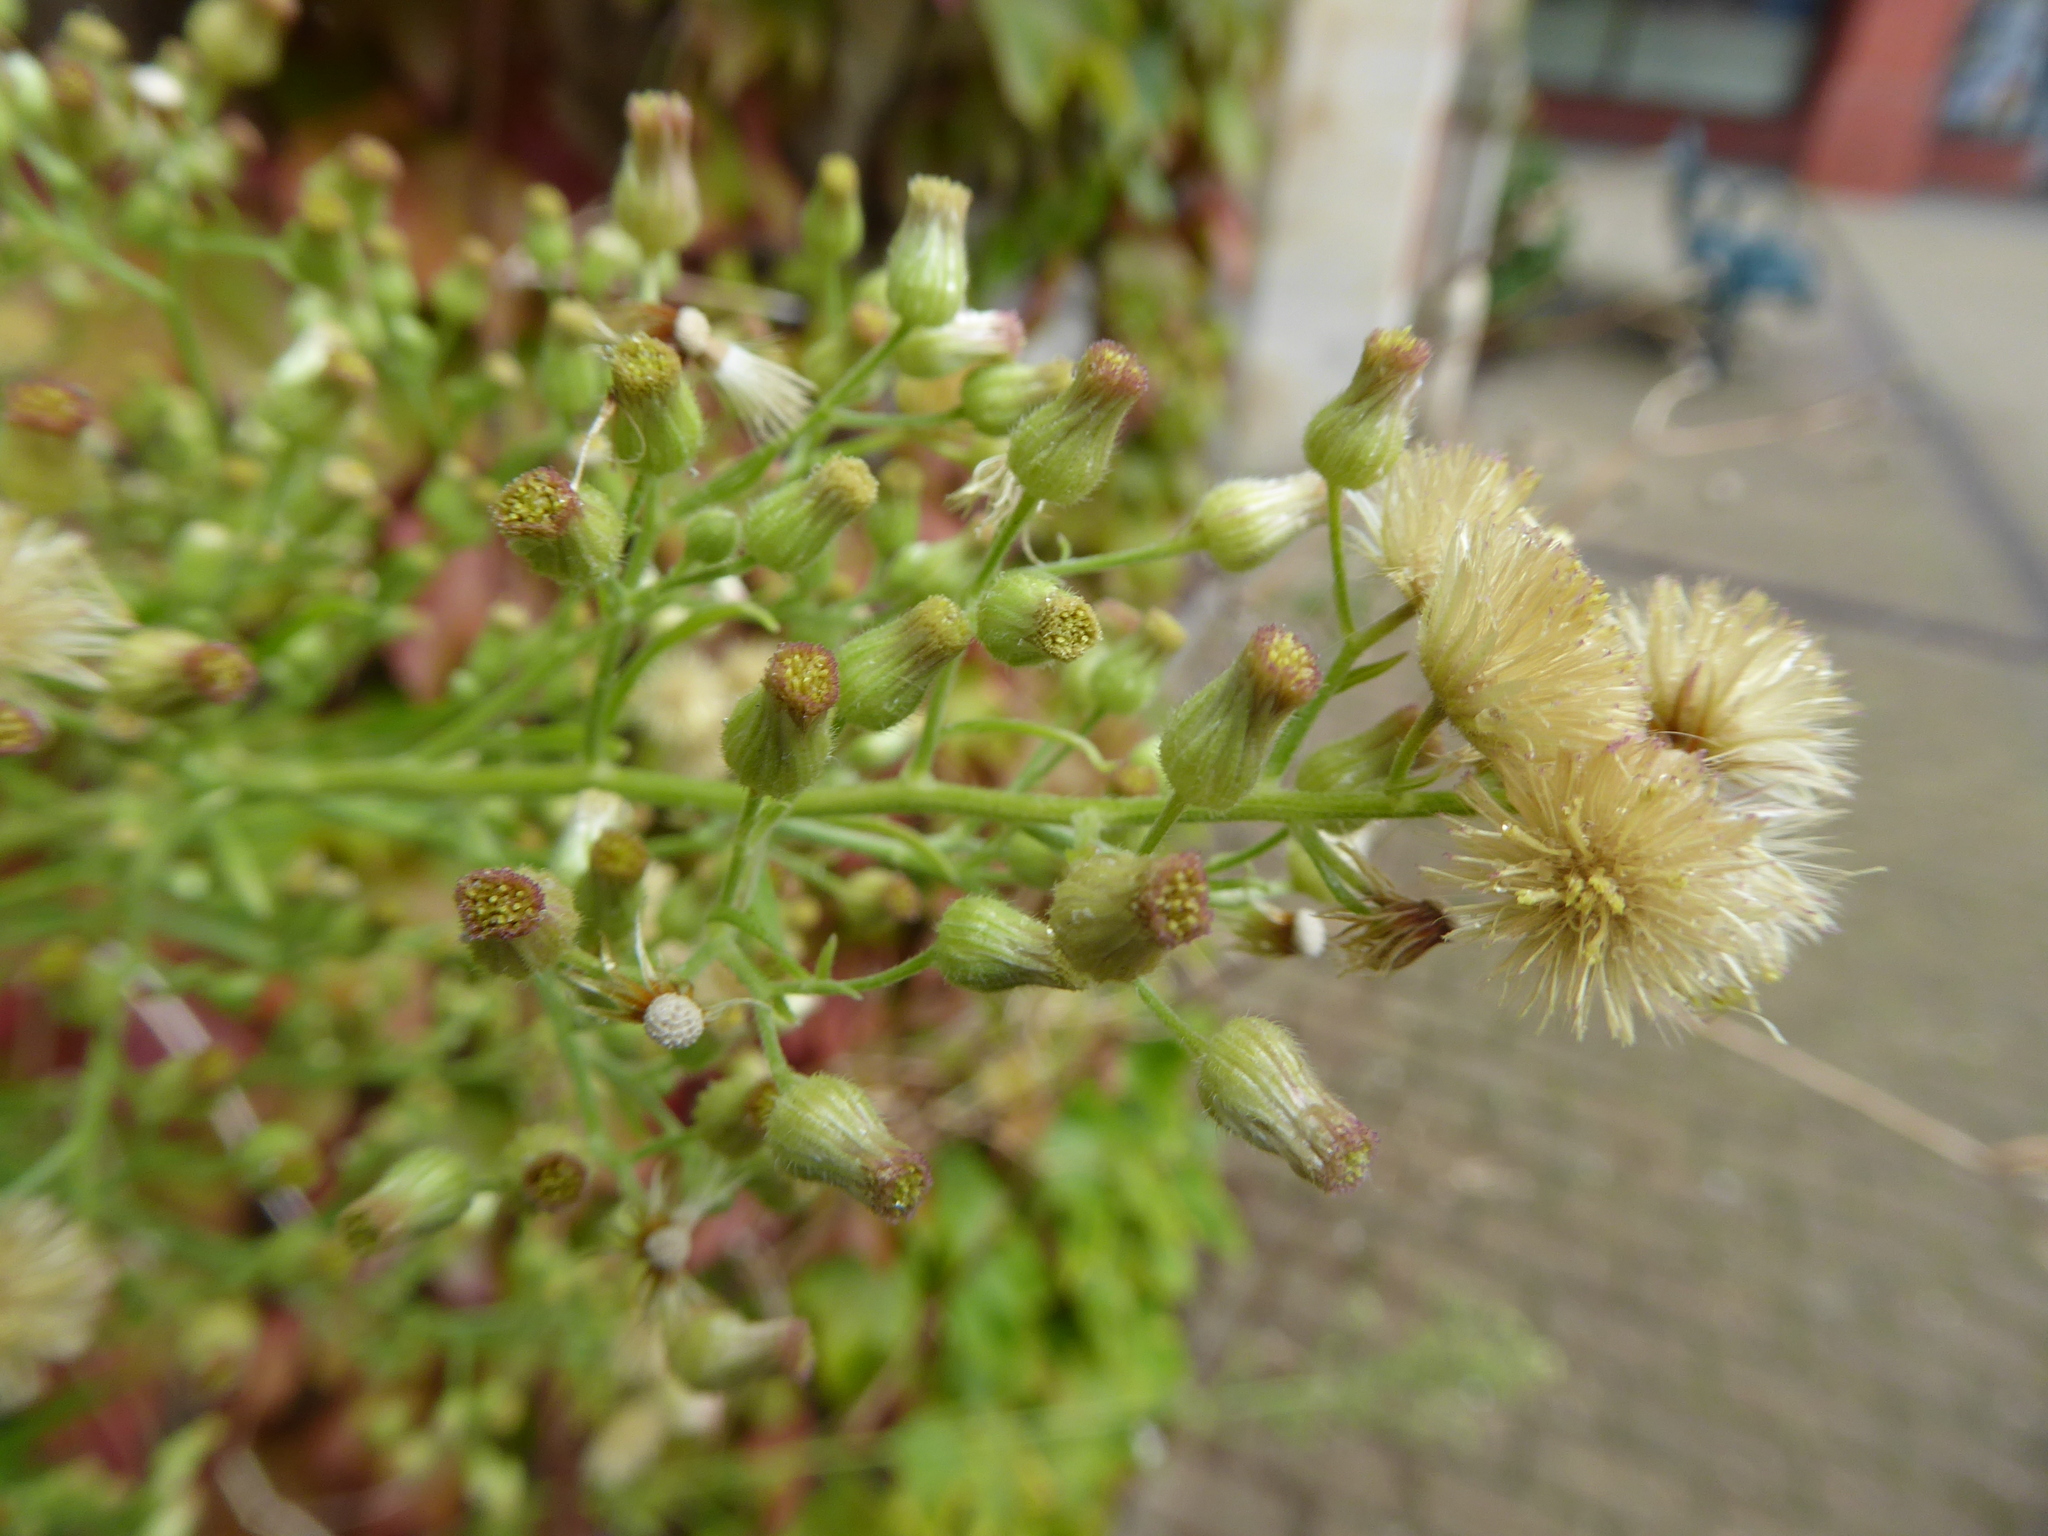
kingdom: Plantae
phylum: Tracheophyta
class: Magnoliopsida
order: Asterales
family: Asteraceae
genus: Erigeron
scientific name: Erigeron sumatrensis
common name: Daisy
